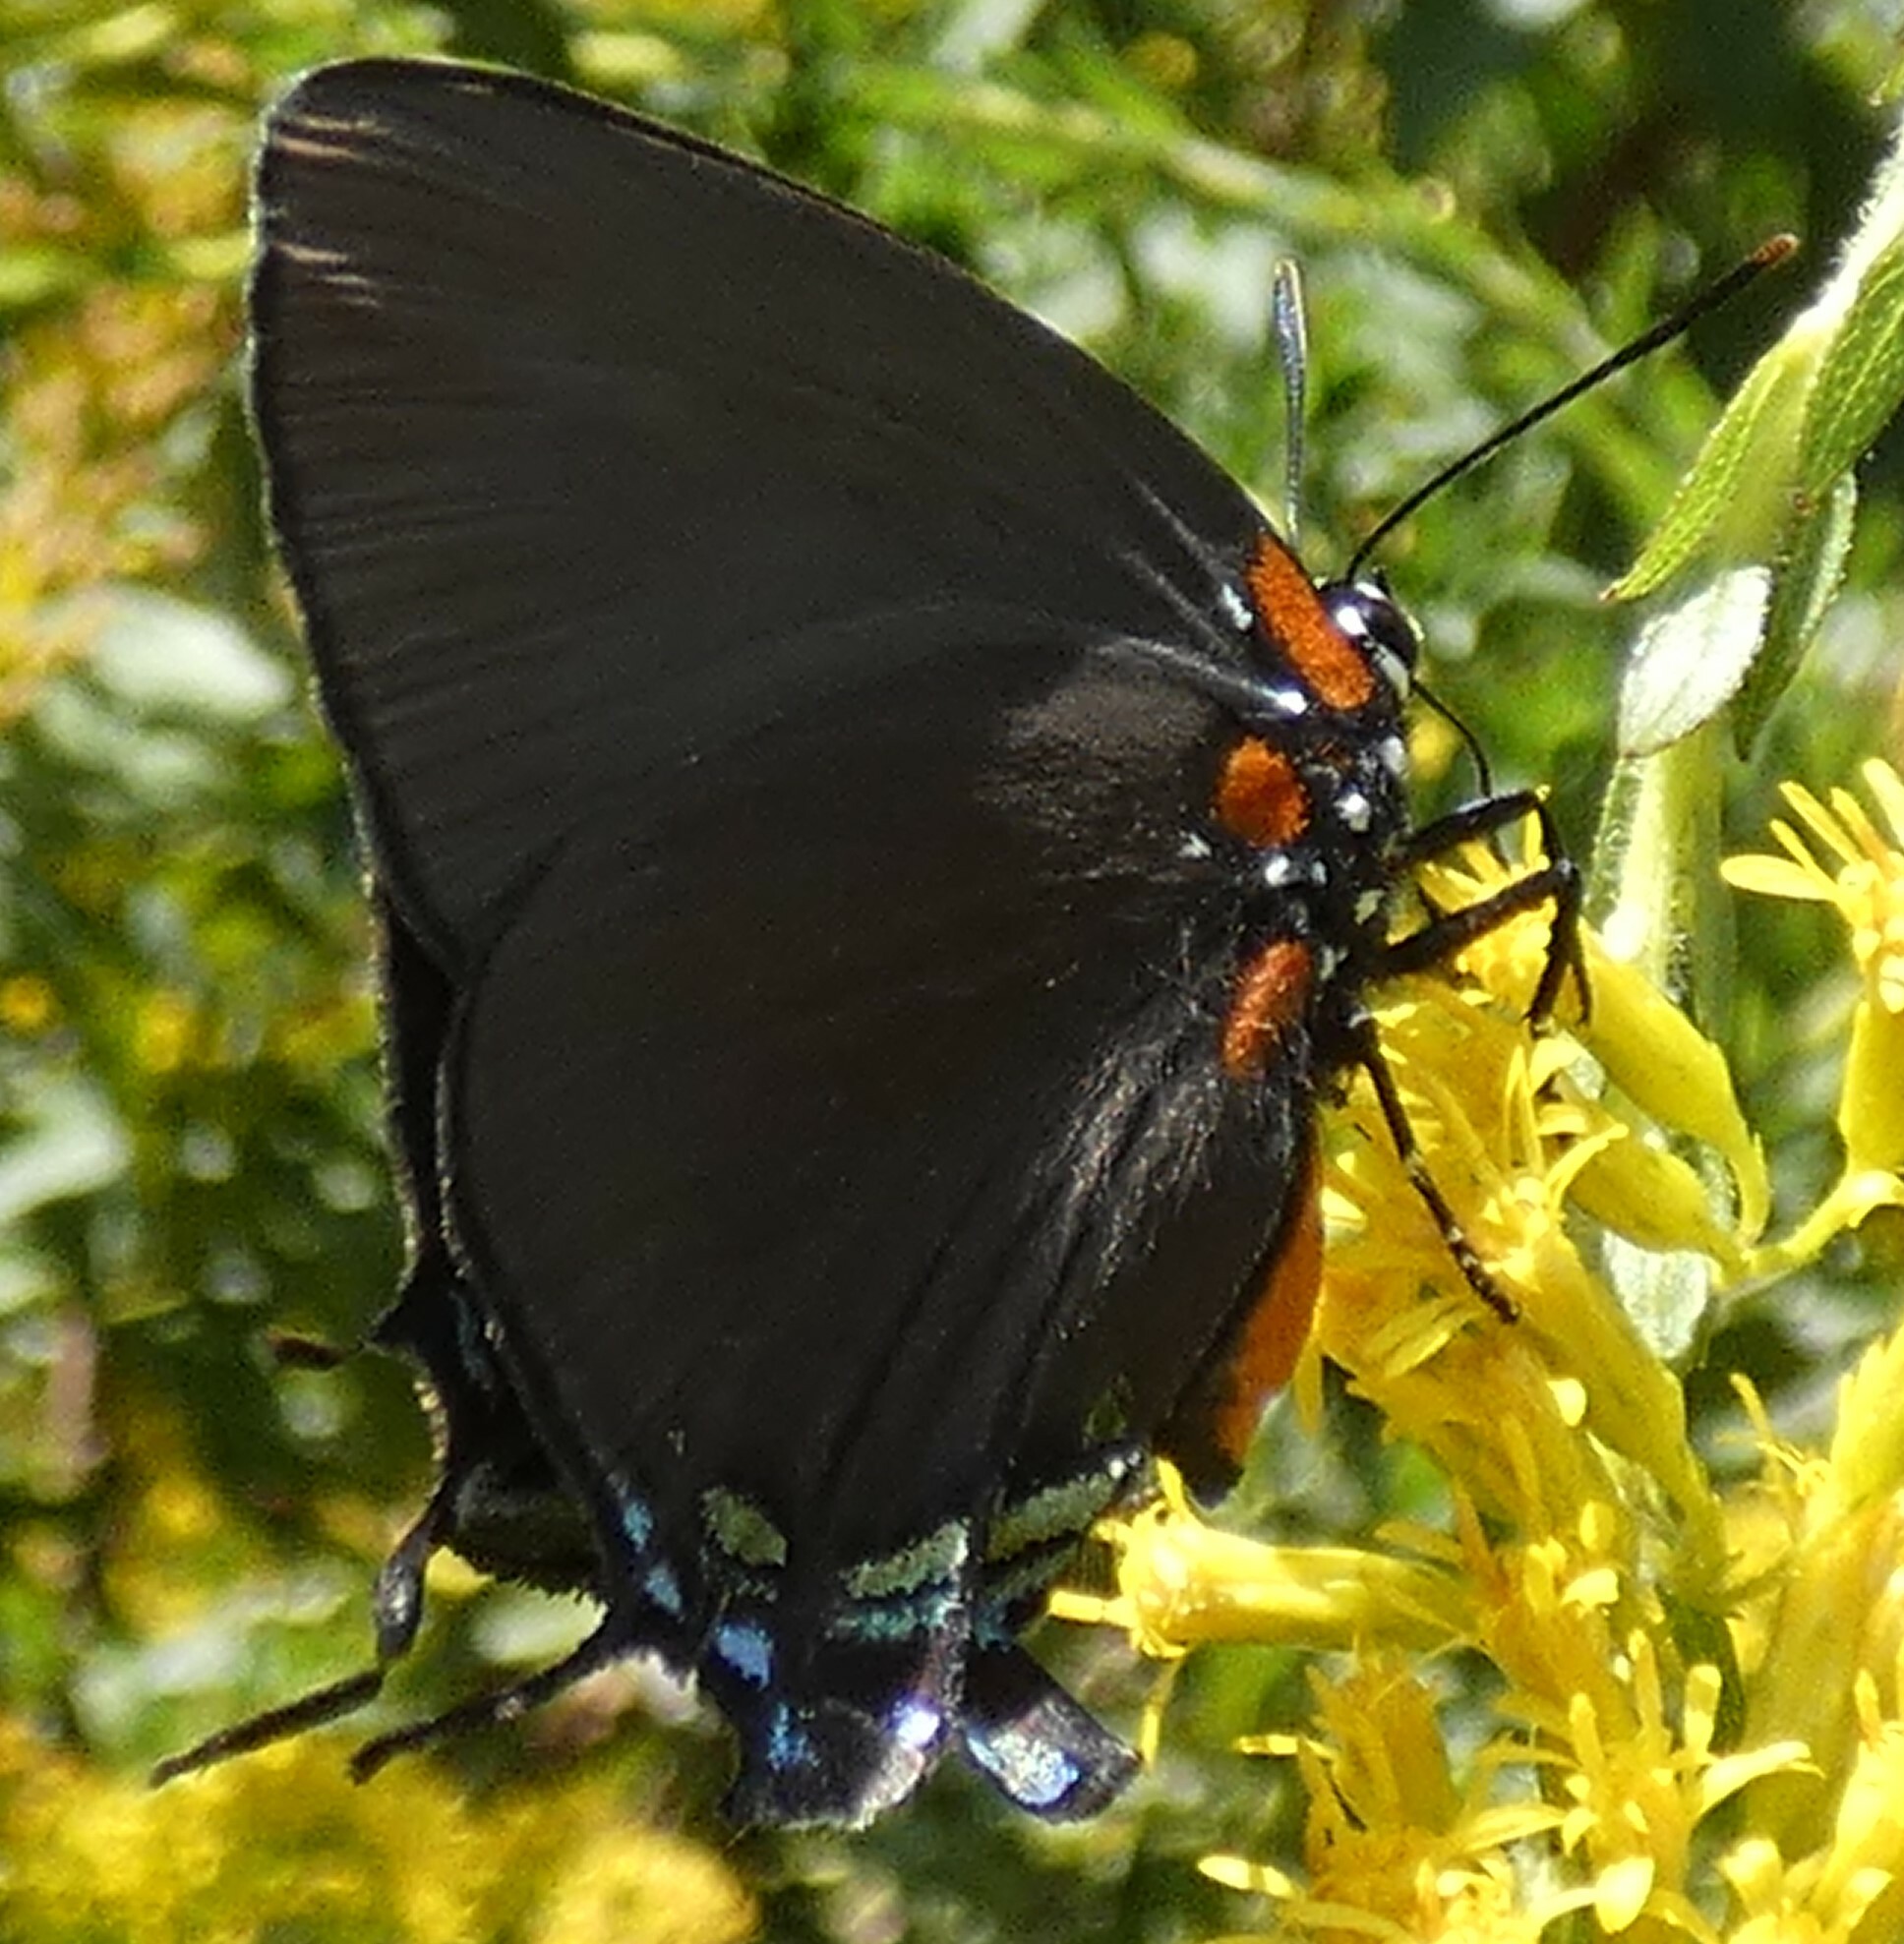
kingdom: Animalia
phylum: Arthropoda
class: Insecta
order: Lepidoptera
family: Lycaenidae
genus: Atlides
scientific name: Atlides halesus
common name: Great purple hairstreak
